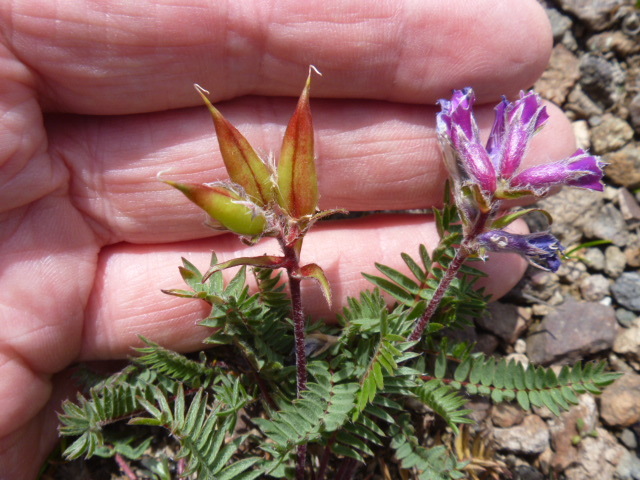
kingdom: Plantae
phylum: Tracheophyta
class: Magnoliopsida
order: Fabales
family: Fabaceae
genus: Oxytropis
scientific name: Oxytropis anertii
